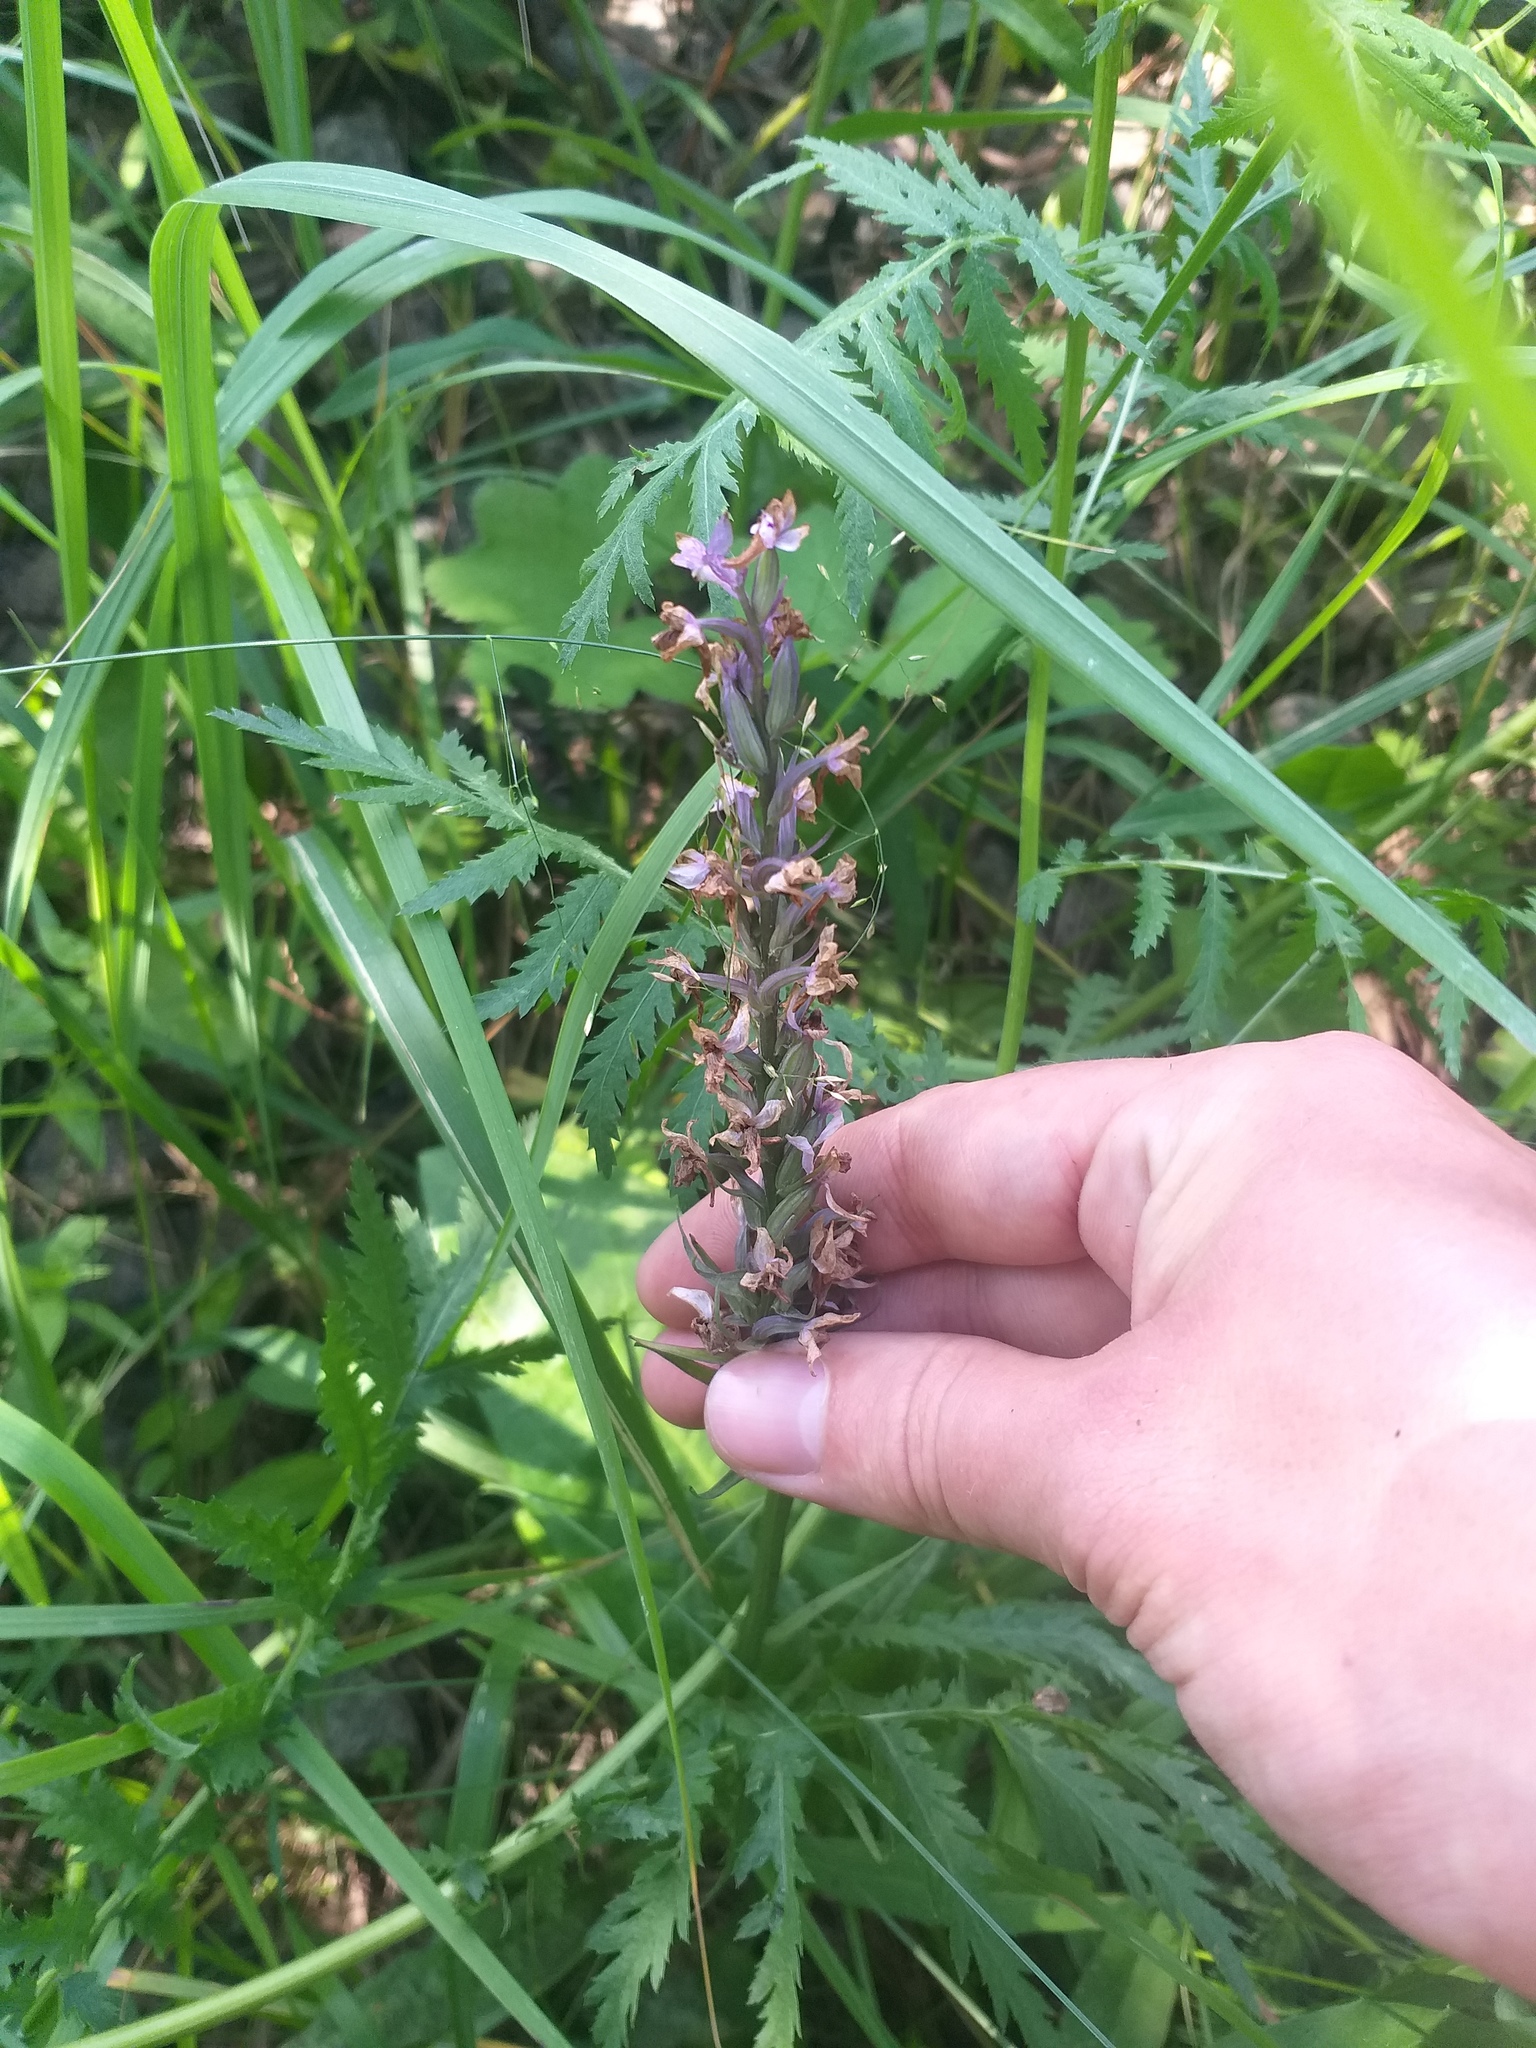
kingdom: Plantae
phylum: Tracheophyta
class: Liliopsida
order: Asparagales
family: Orchidaceae
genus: Dactylorhiza
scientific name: Dactylorhiza maculata
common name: Heath spotted-orchid
